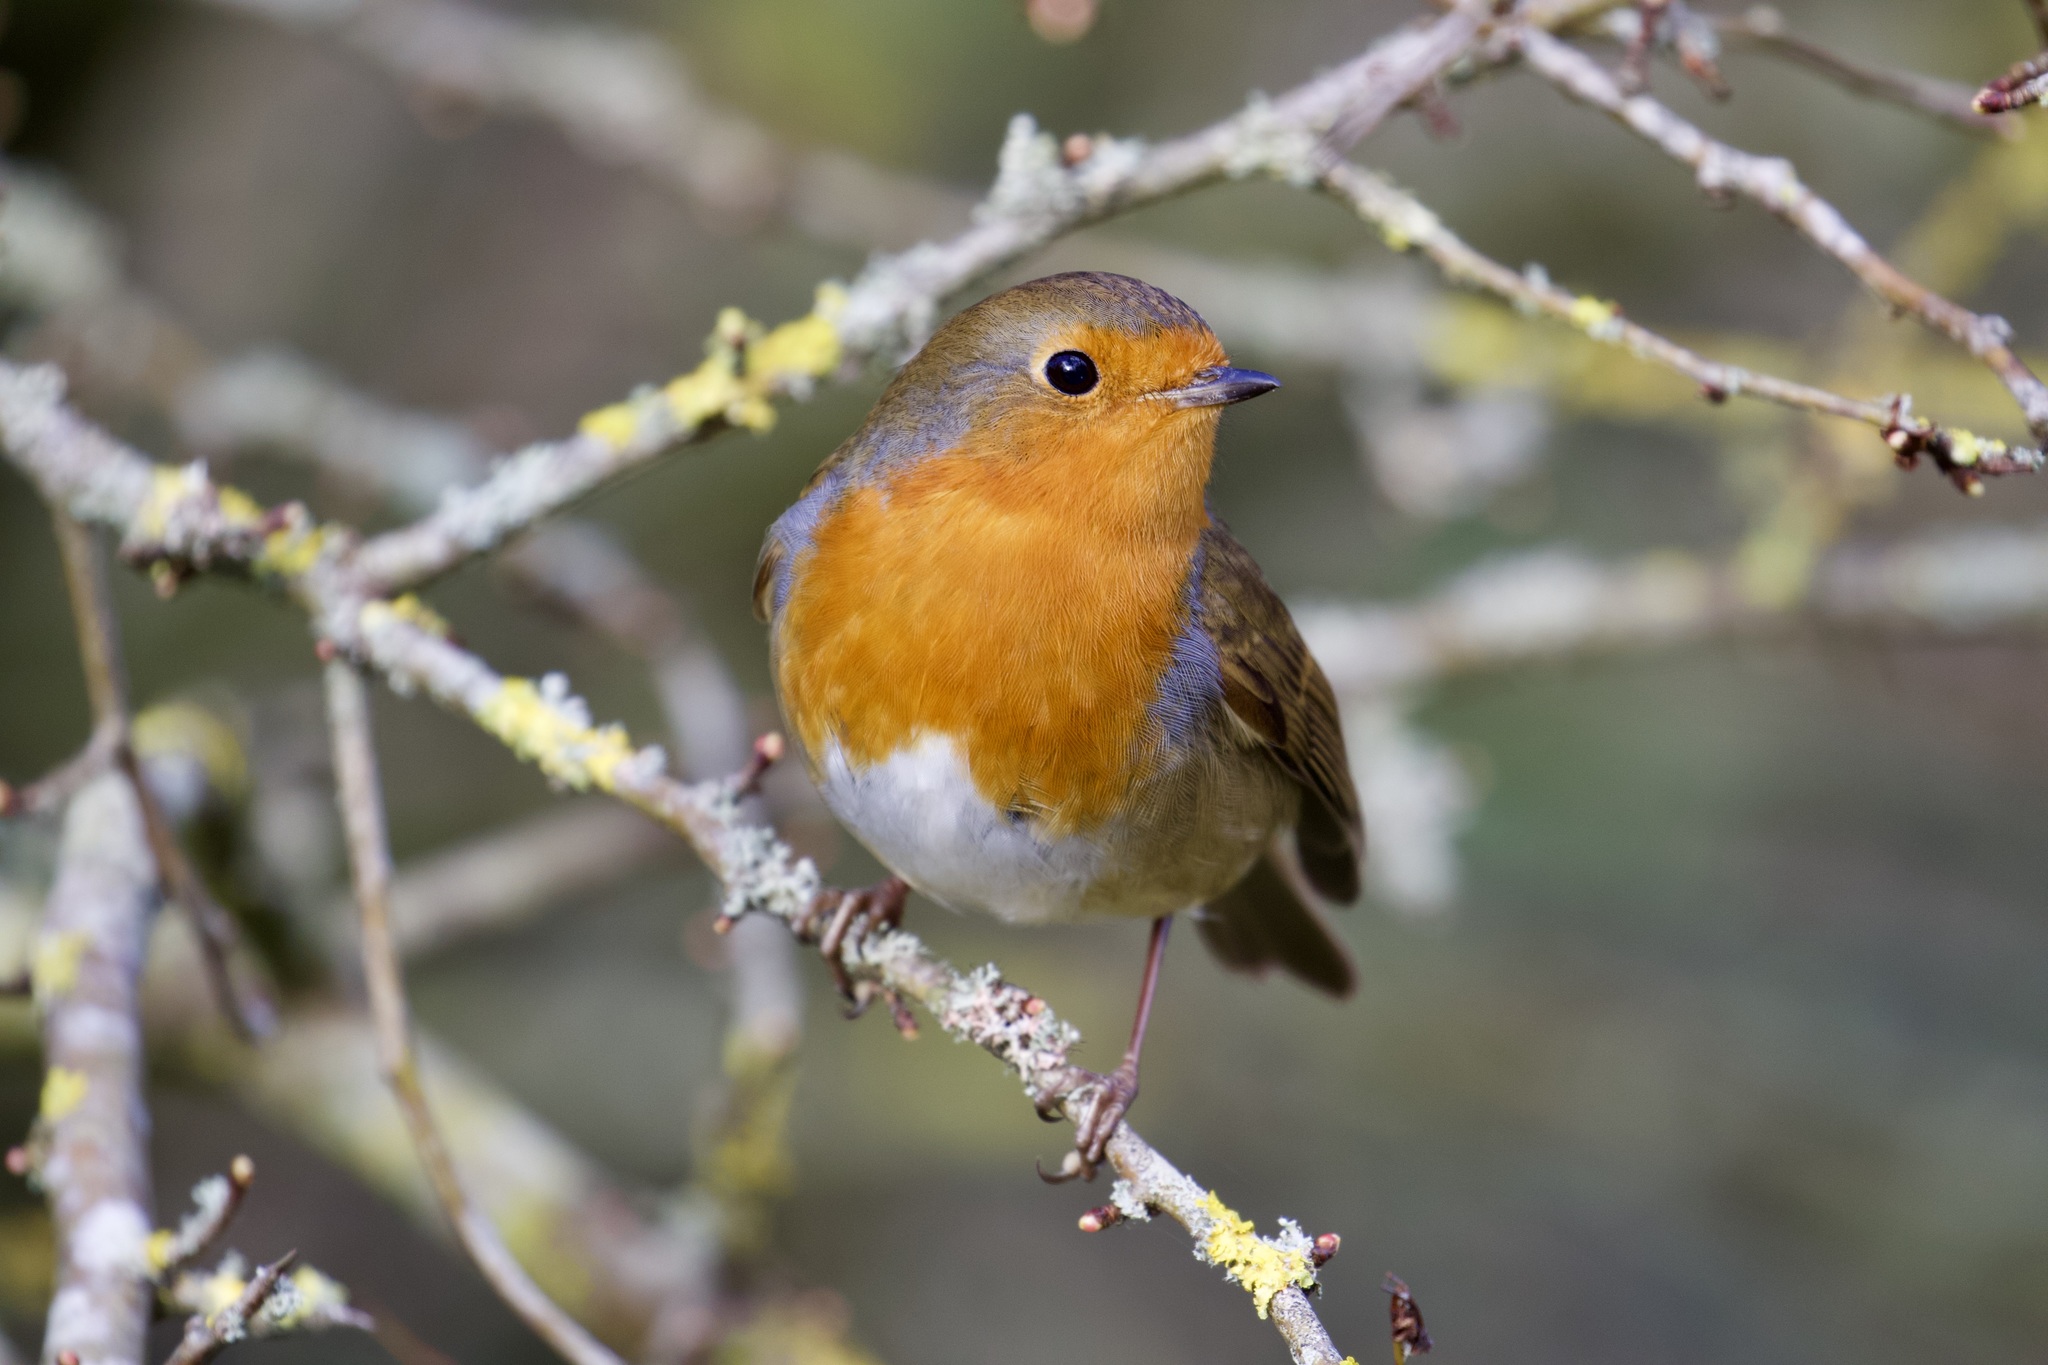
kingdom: Animalia
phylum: Chordata
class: Aves
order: Passeriformes
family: Muscicapidae
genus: Erithacus
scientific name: Erithacus rubecula
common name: European robin
